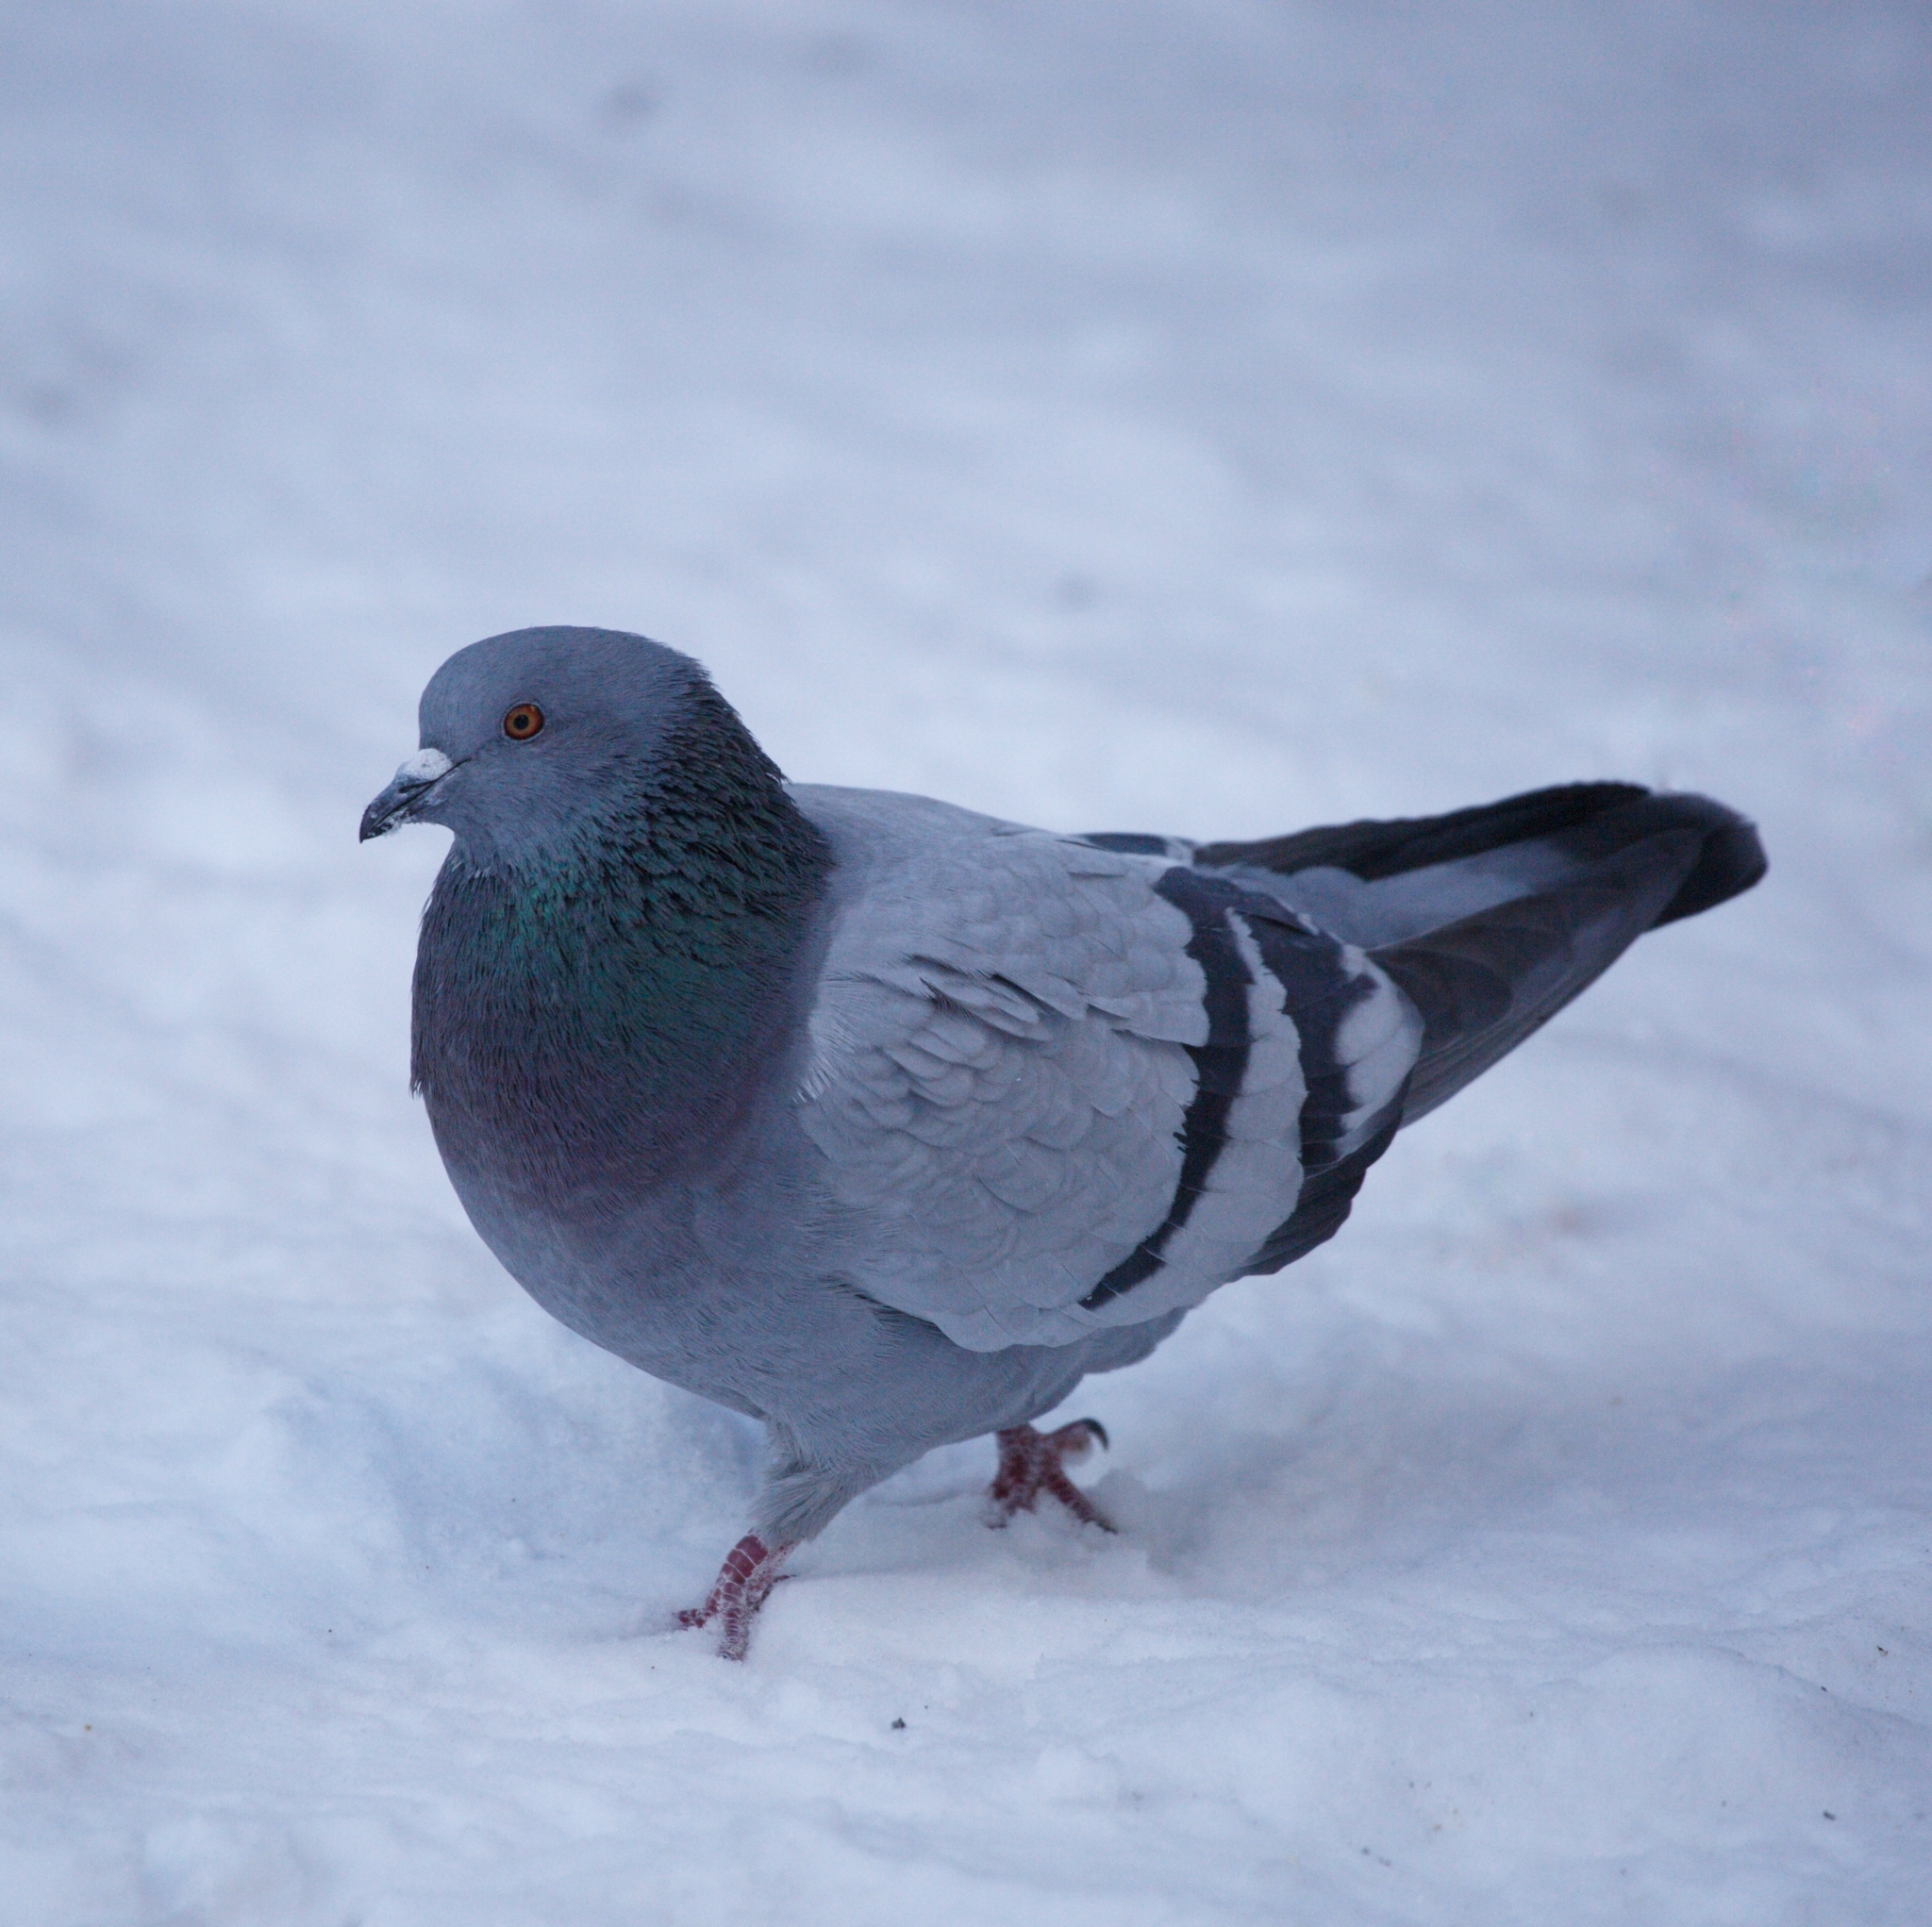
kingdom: Animalia
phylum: Chordata
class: Aves
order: Columbiformes
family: Columbidae
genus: Columba
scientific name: Columba livia
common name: Rock pigeon
